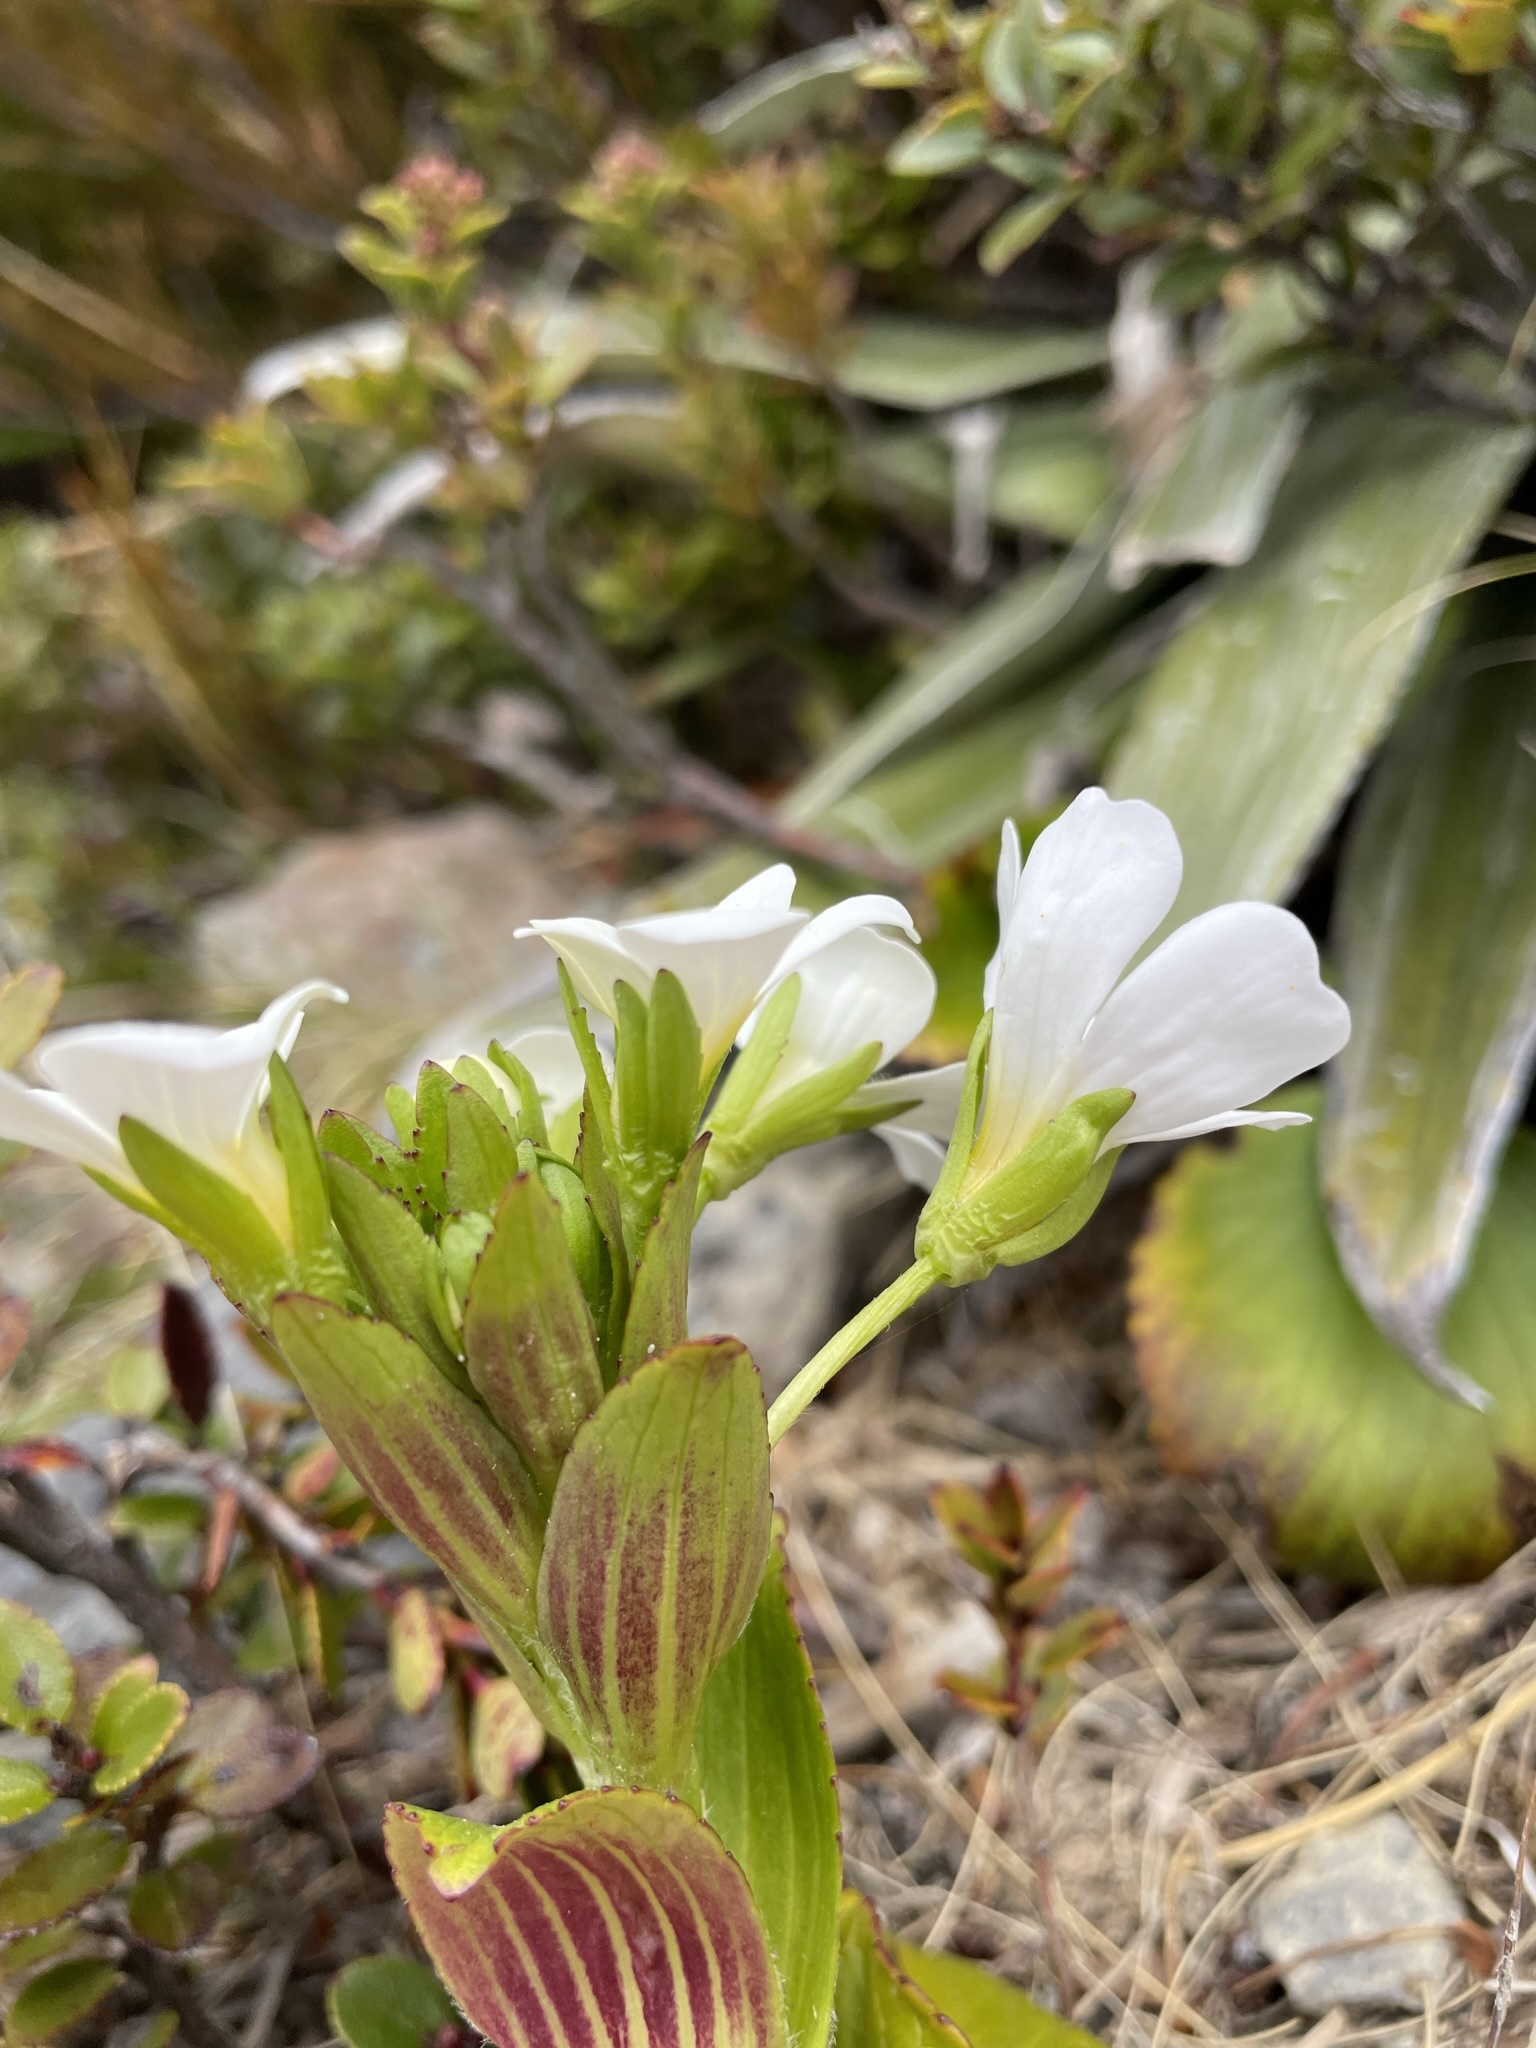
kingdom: Plantae
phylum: Tracheophyta
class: Magnoliopsida
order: Lamiales
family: Plantaginaceae
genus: Ourisia
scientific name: Ourisia calycina
